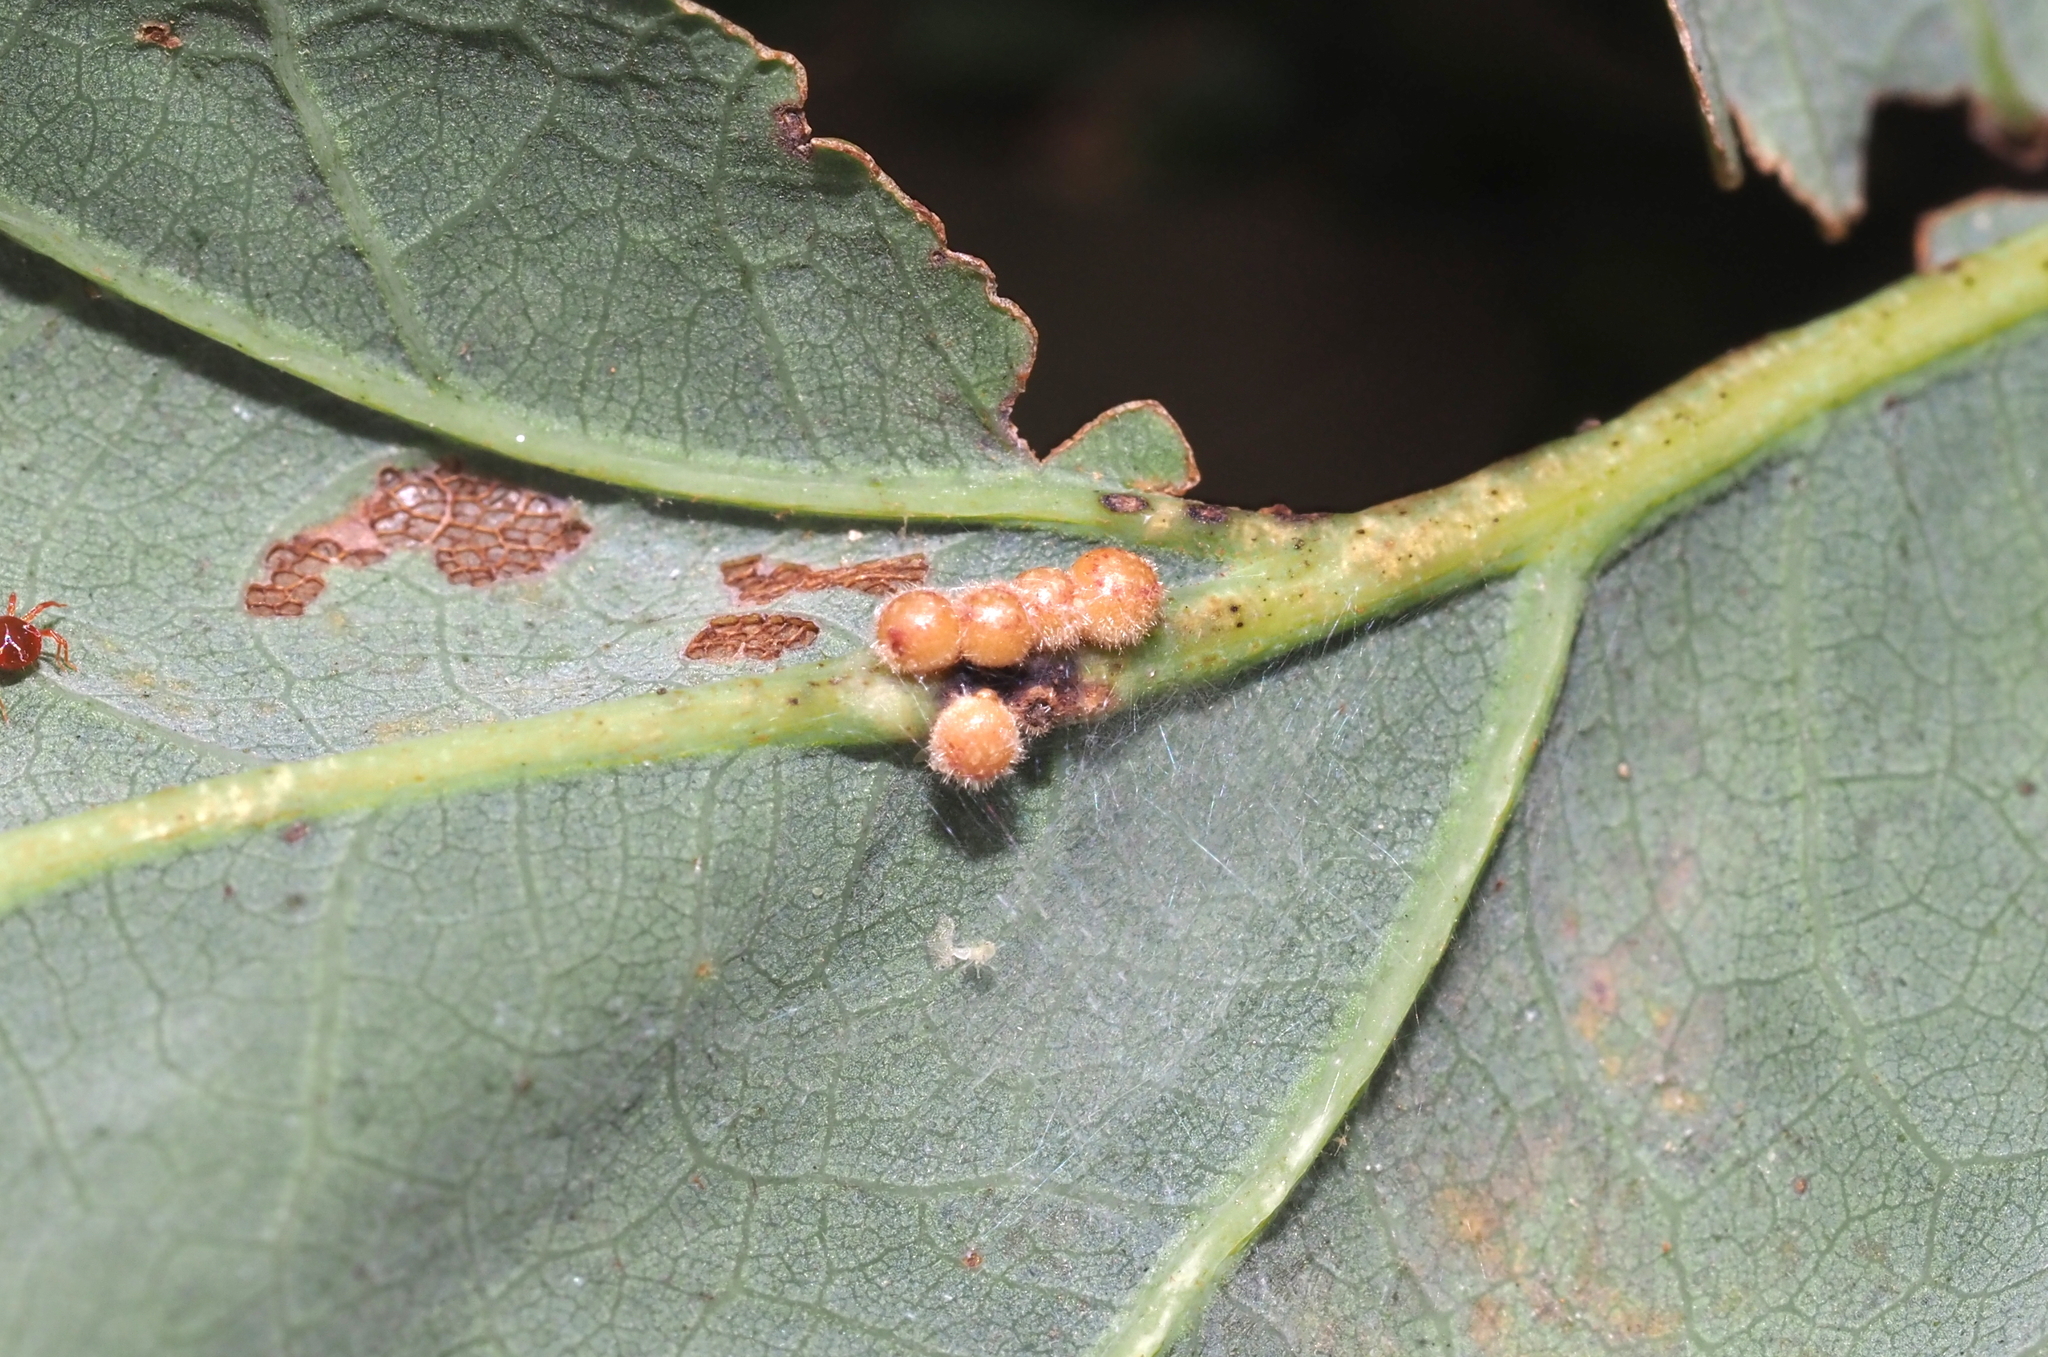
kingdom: Animalia
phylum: Arthropoda
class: Insecta
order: Hymenoptera
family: Cynipidae
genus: Andricus
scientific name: Andricus
